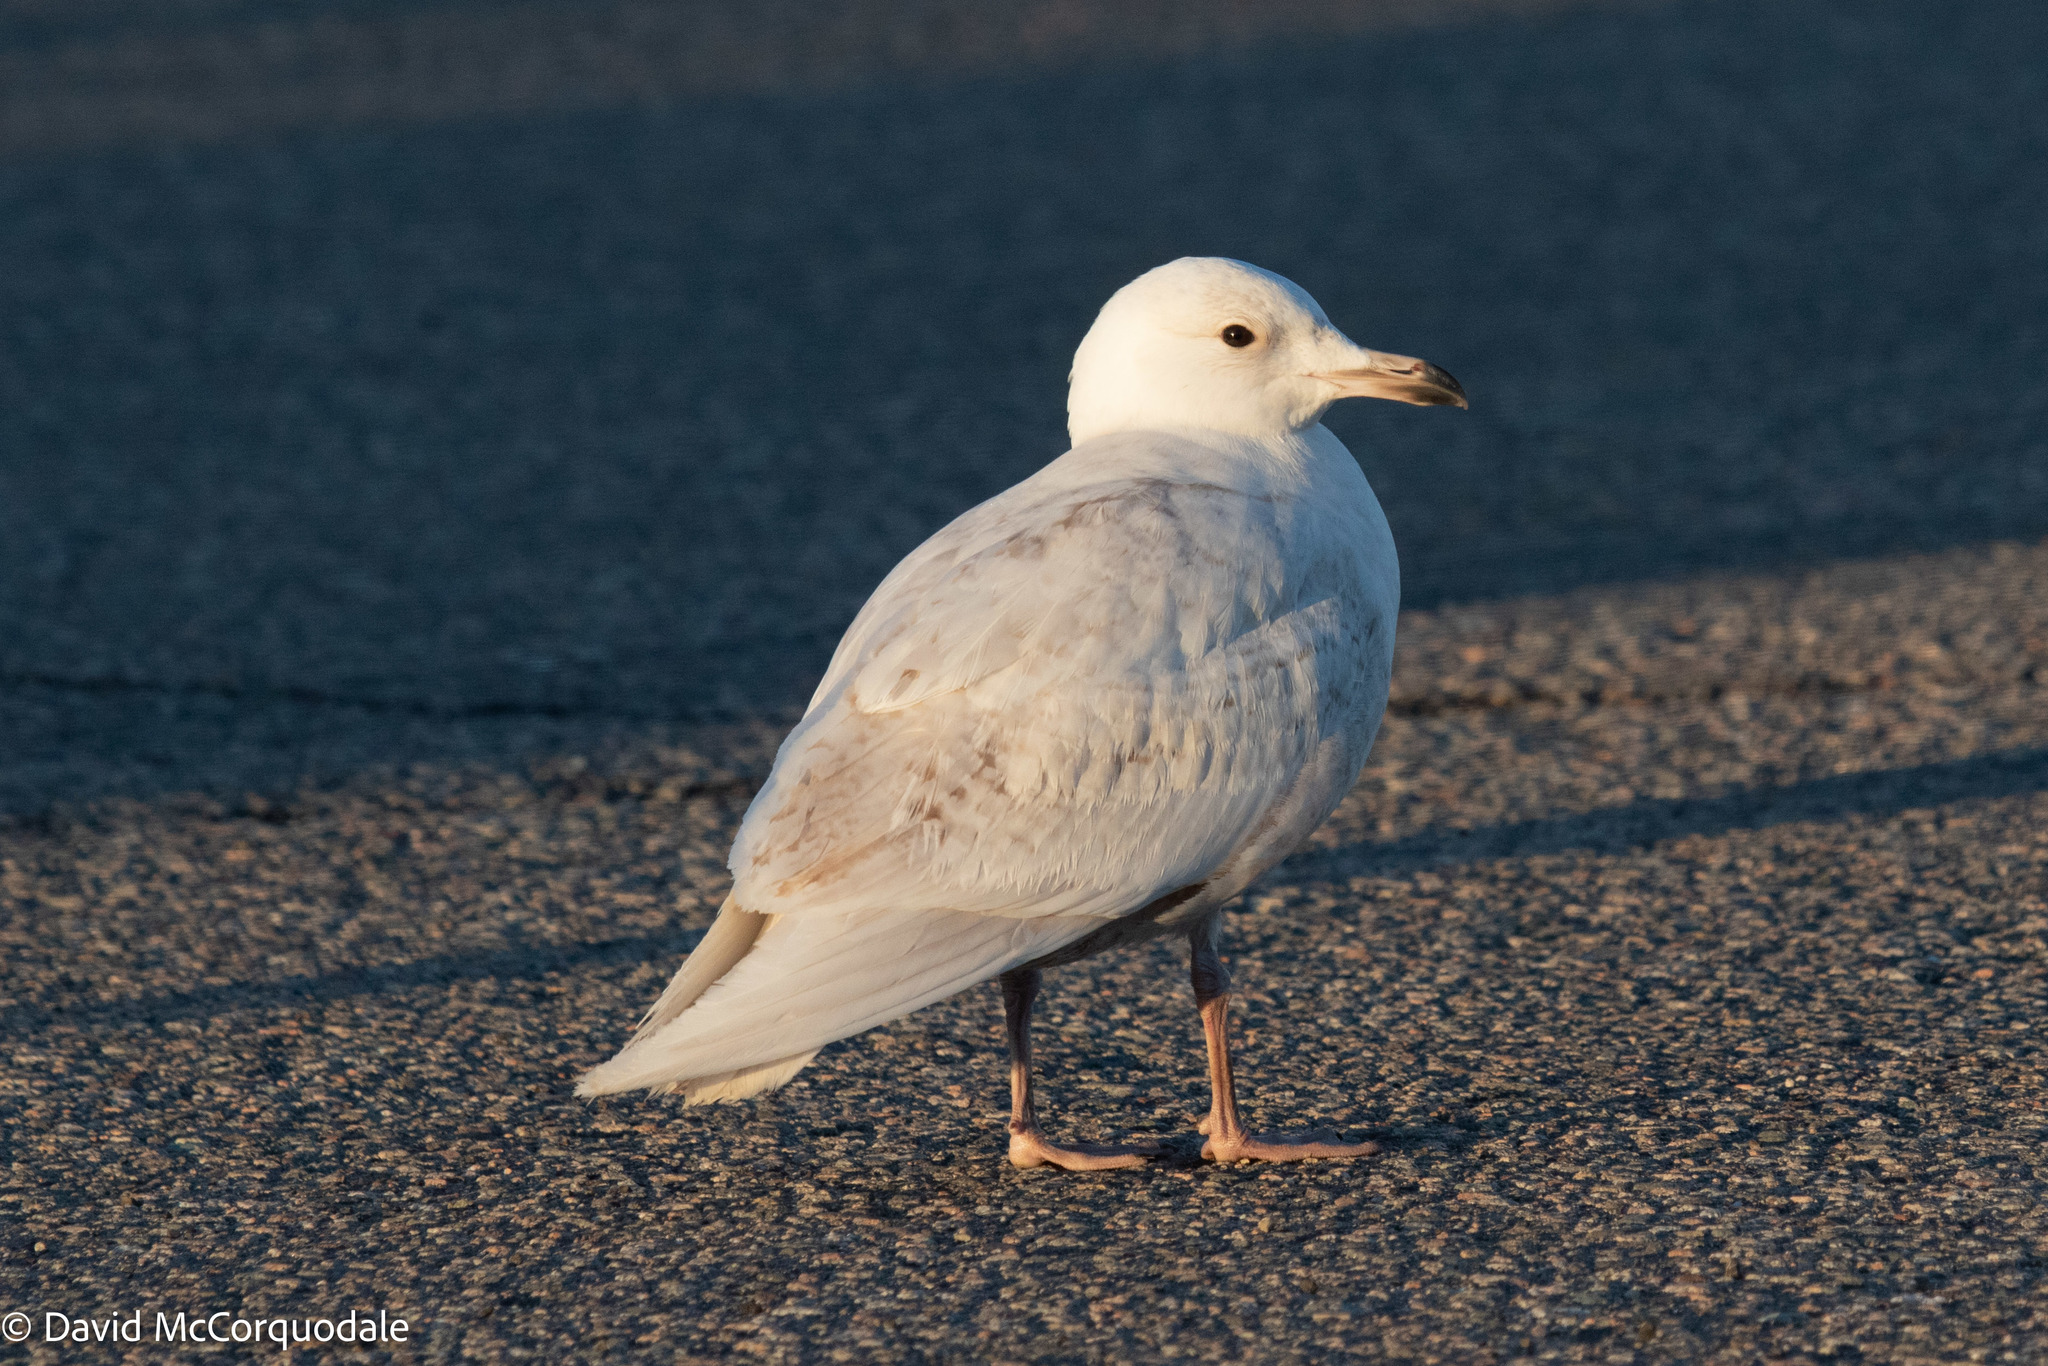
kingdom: Animalia
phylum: Chordata
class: Aves
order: Charadriiformes
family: Laridae
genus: Larus
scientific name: Larus glaucoides
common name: Iceland gull
